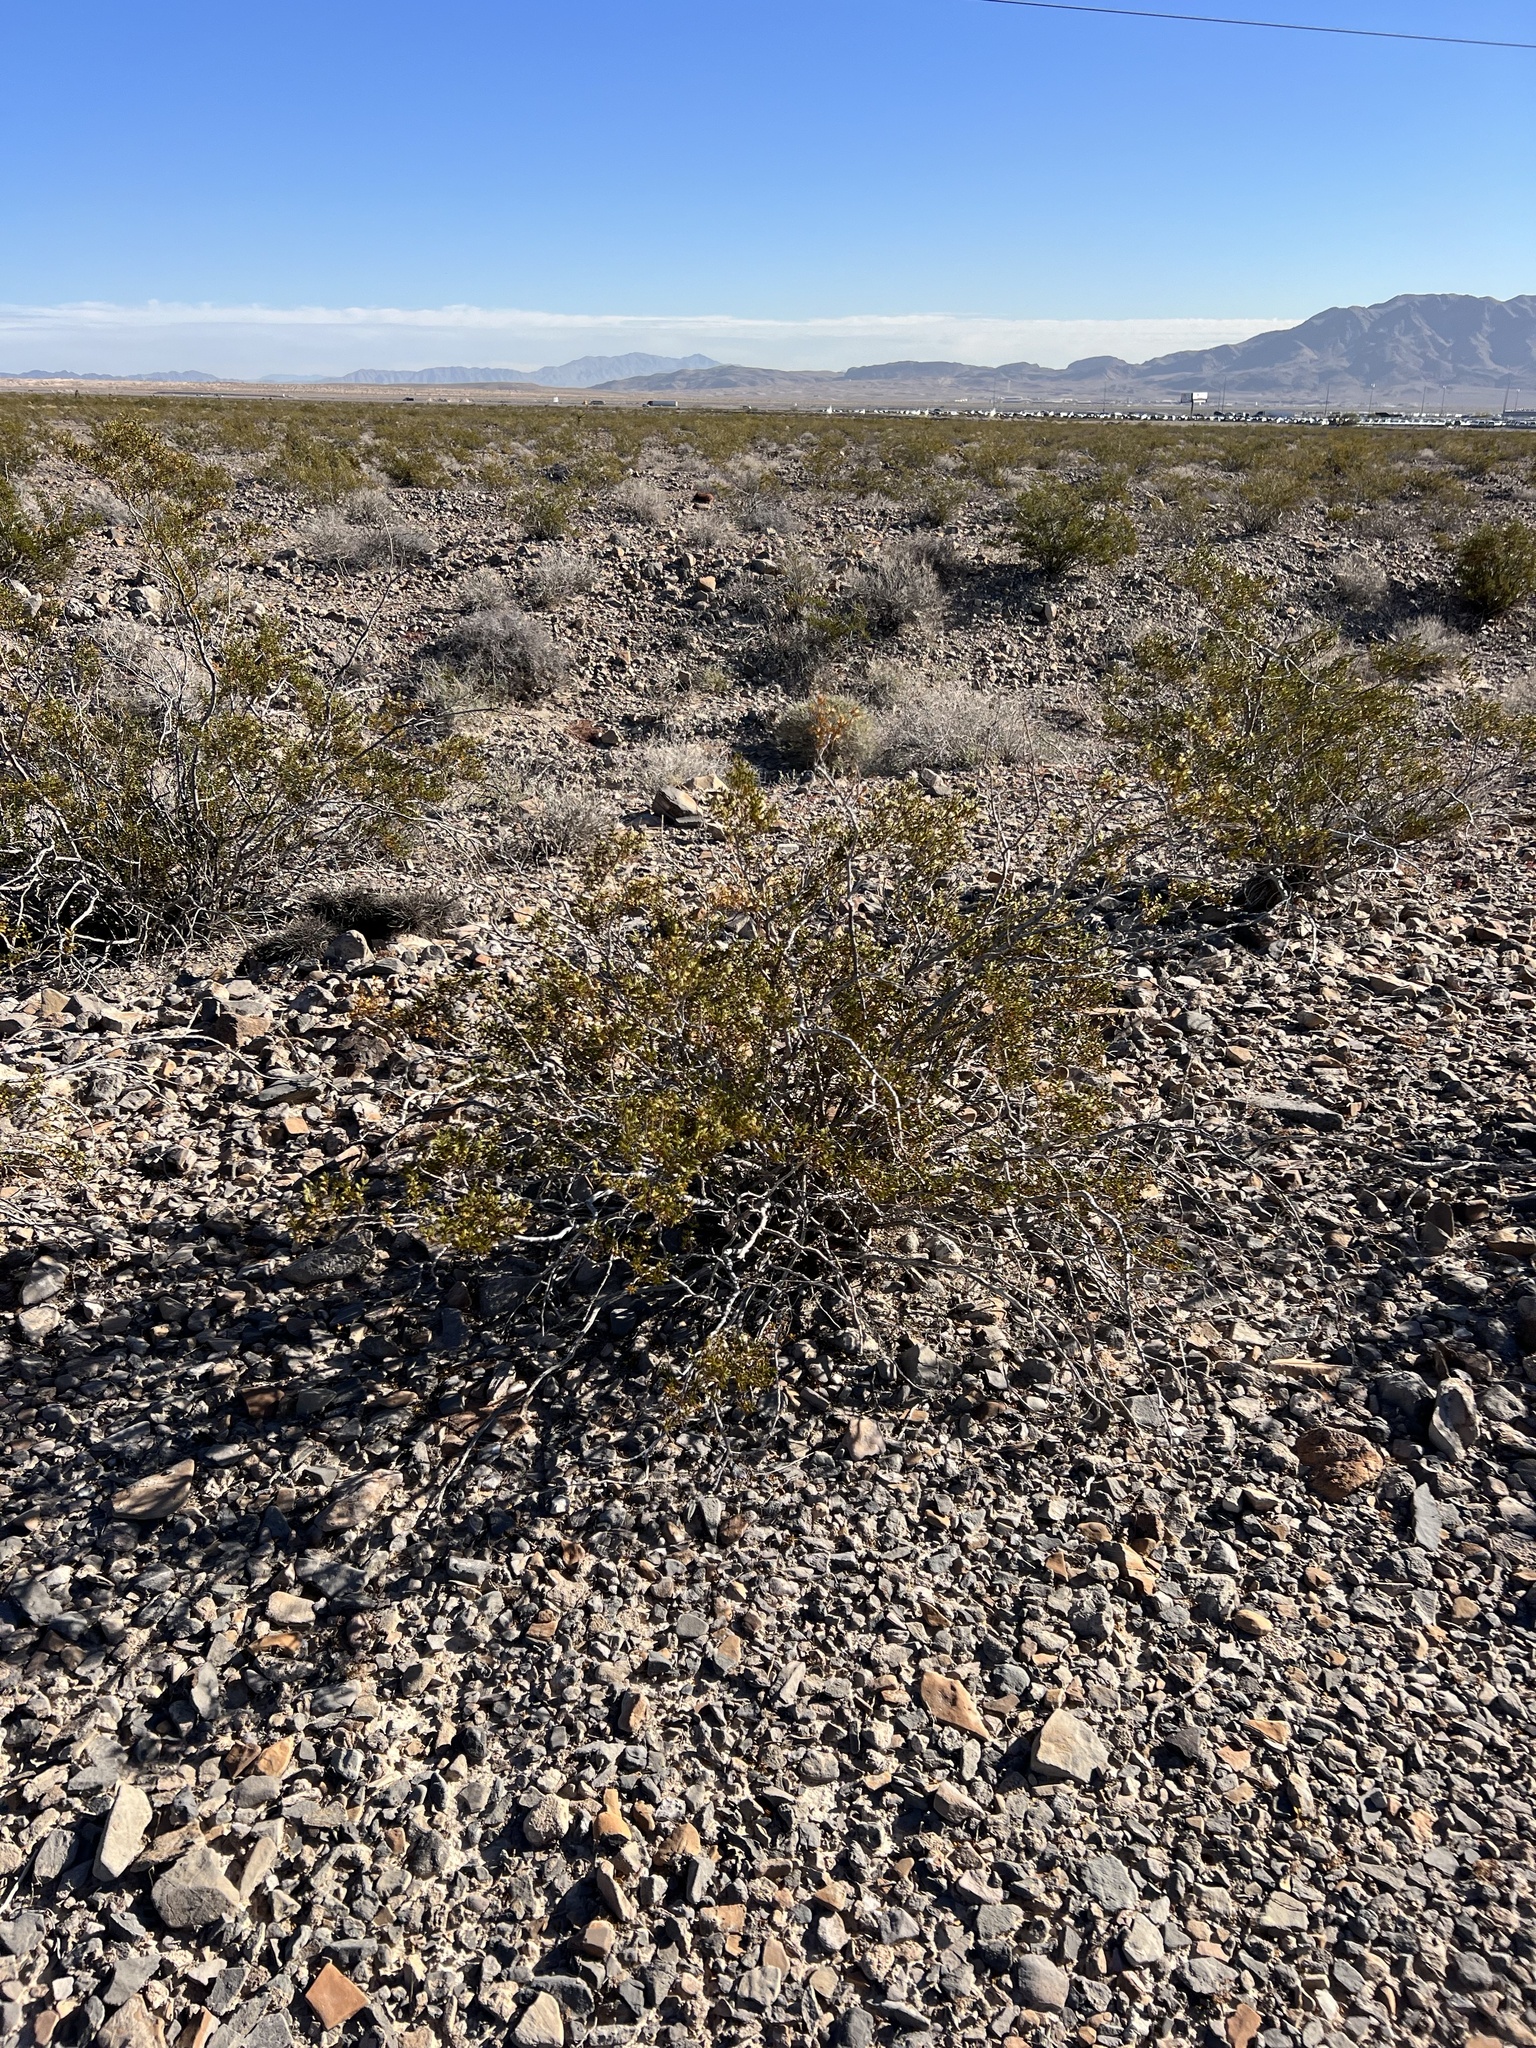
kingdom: Plantae
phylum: Tracheophyta
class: Magnoliopsida
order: Zygophyllales
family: Zygophyllaceae
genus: Larrea
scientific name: Larrea tridentata
